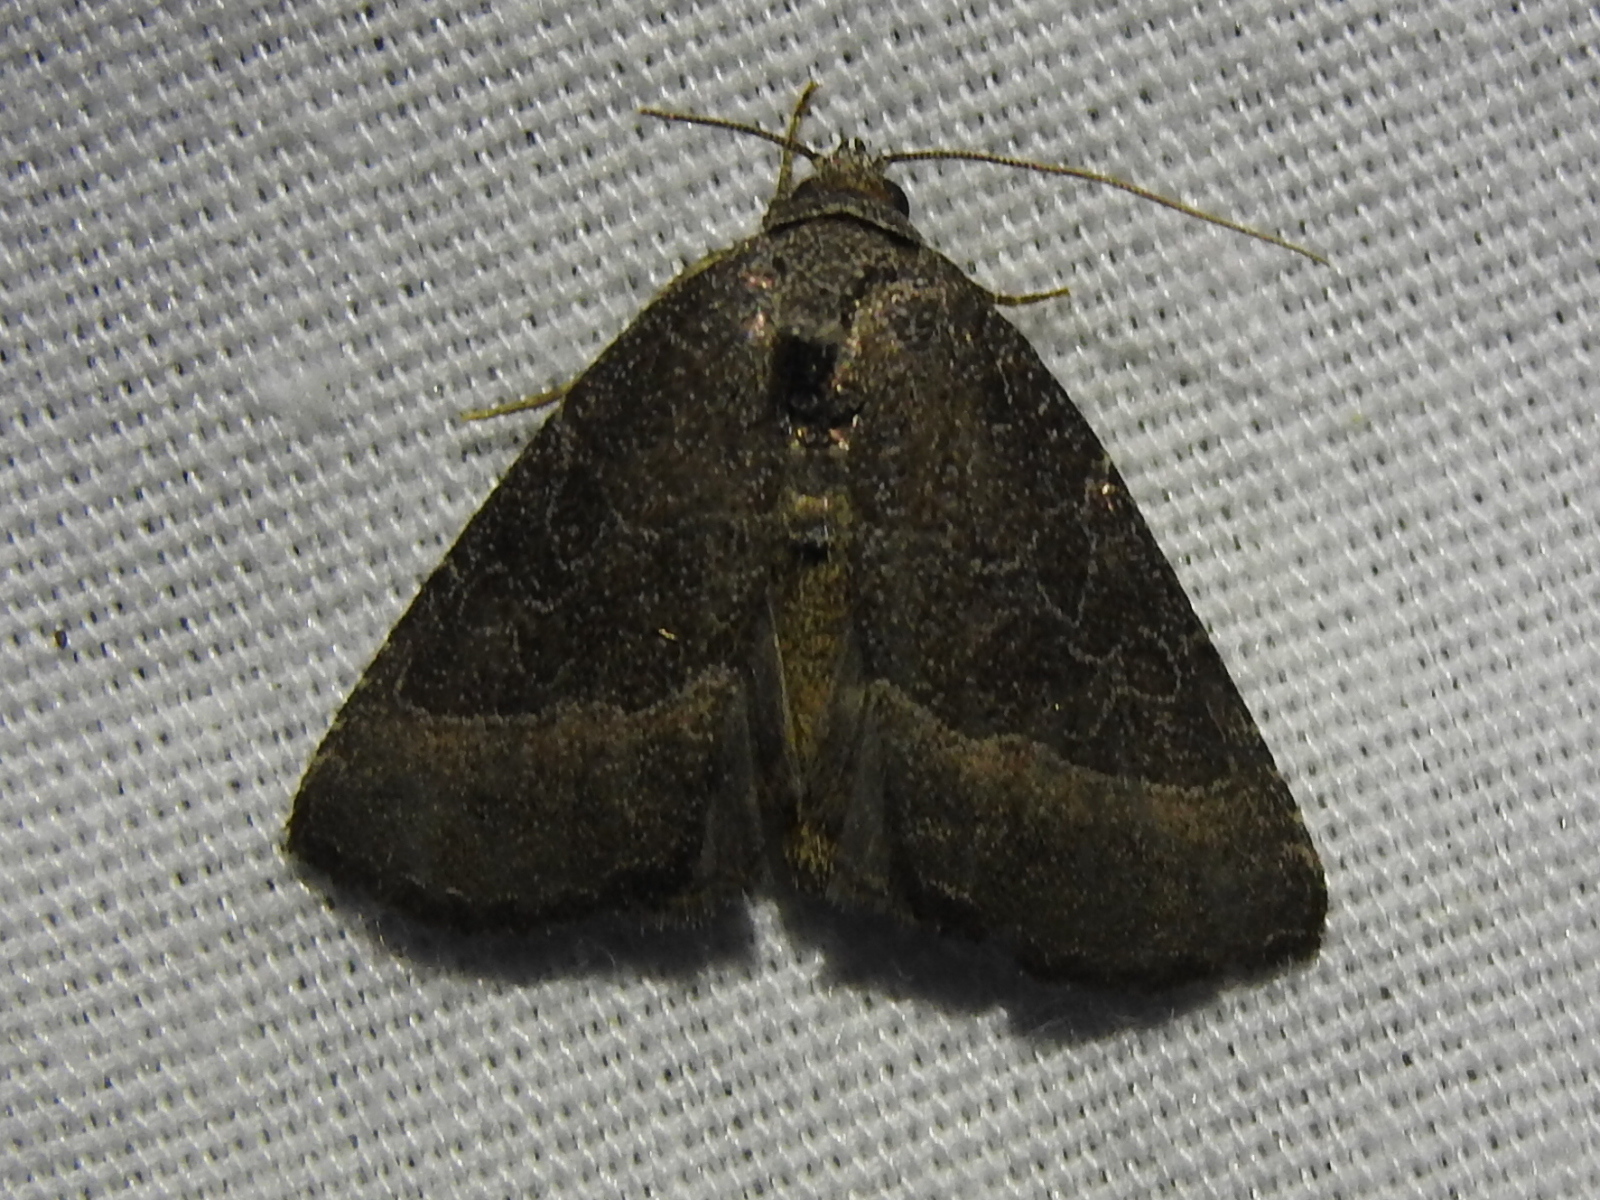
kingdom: Animalia
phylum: Arthropoda
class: Insecta
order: Lepidoptera
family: Noctuidae
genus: Ogdoconta
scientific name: Ogdoconta cinereola
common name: Common pinkband
